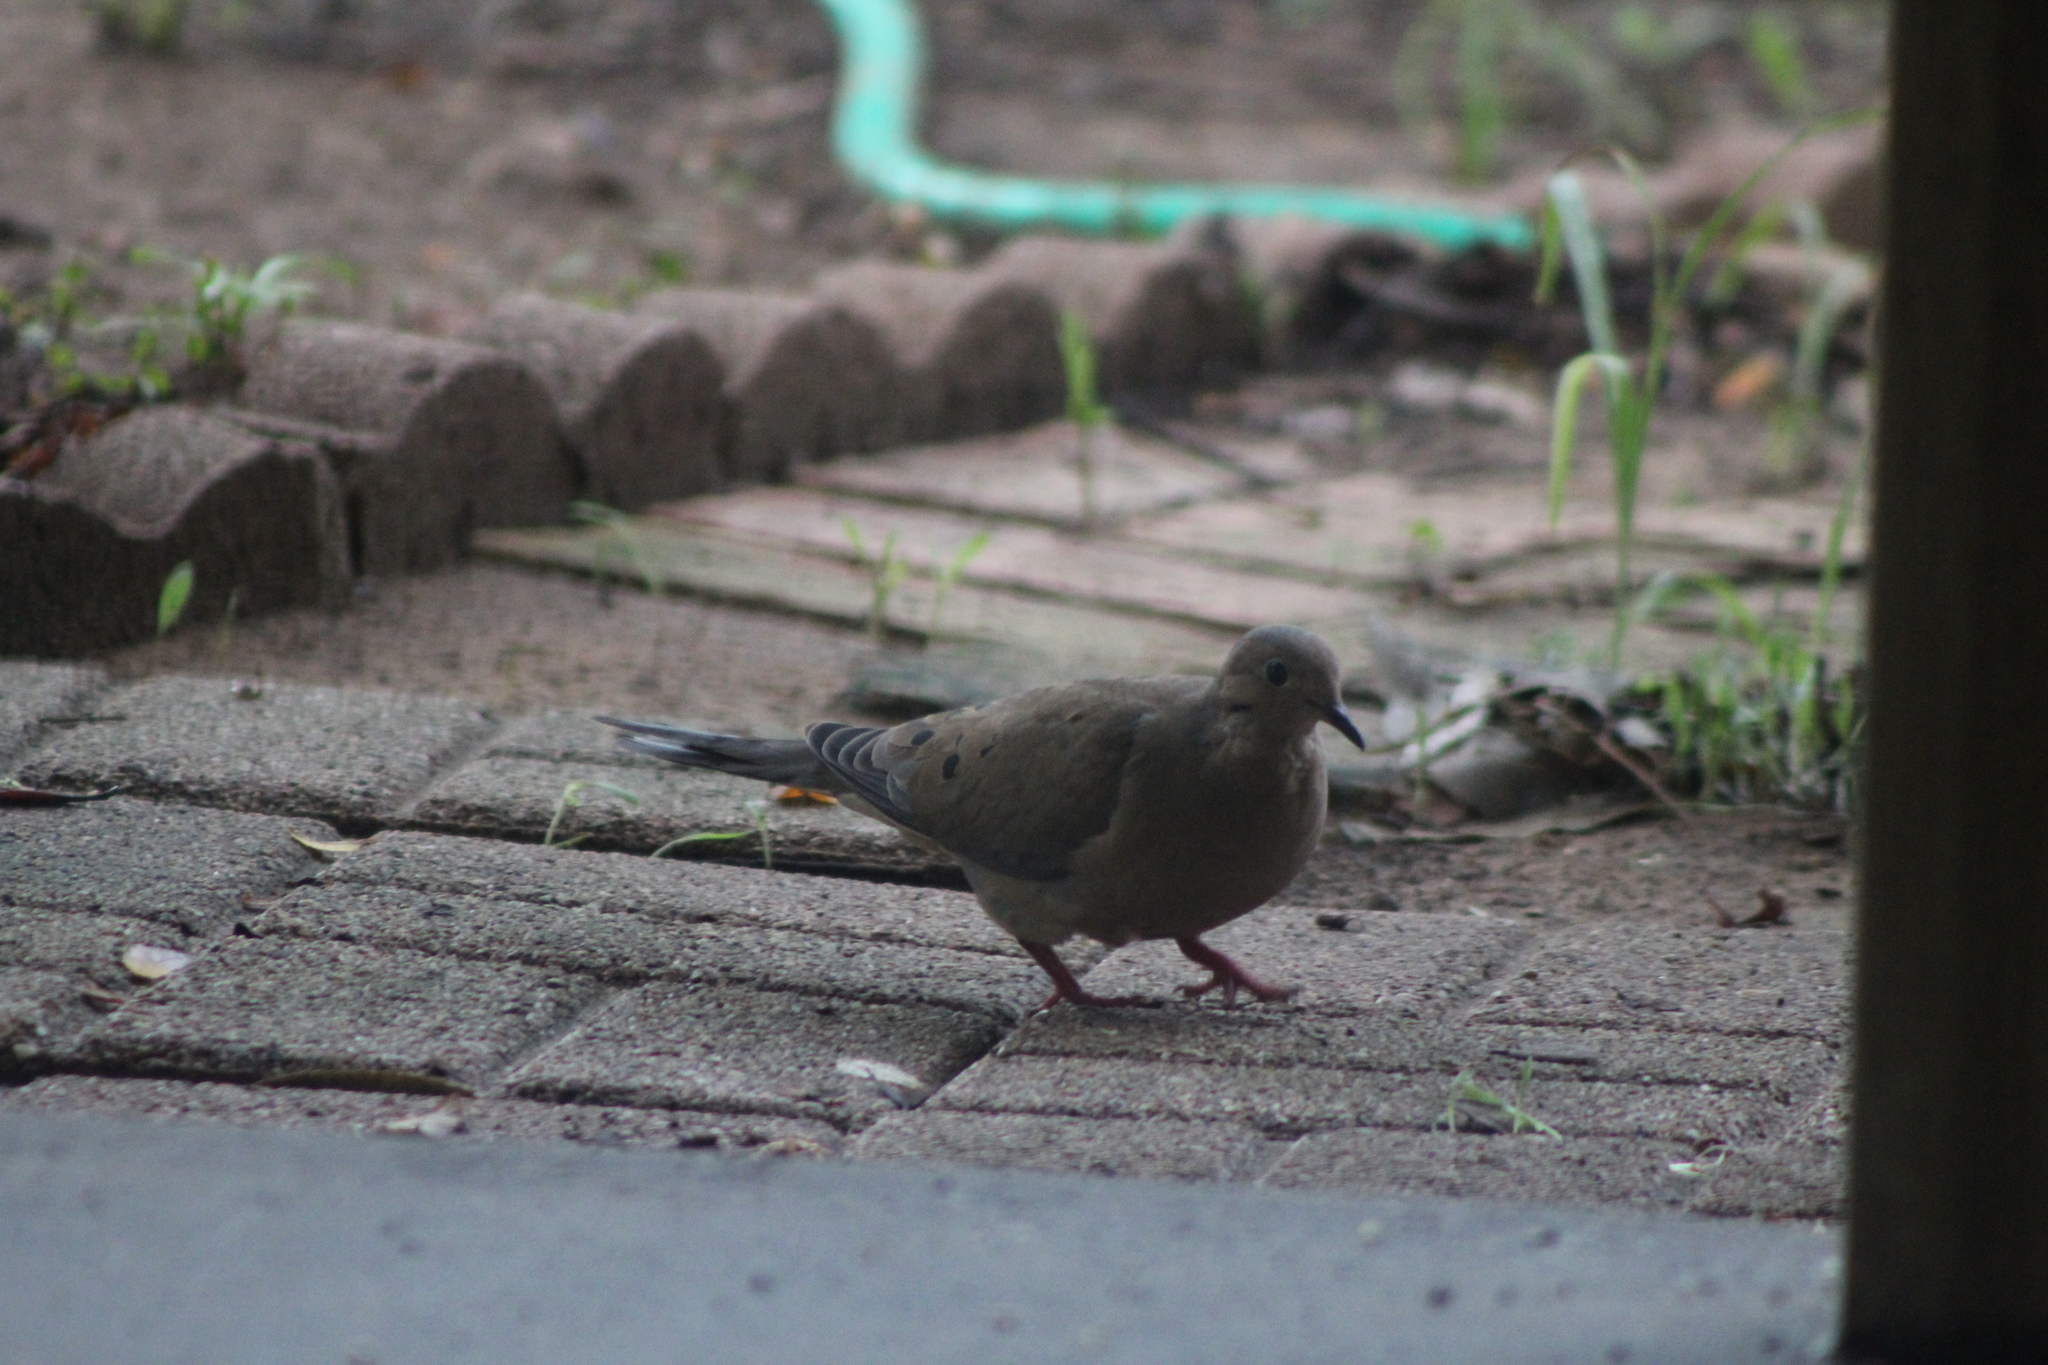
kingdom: Animalia
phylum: Chordata
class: Aves
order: Columbiformes
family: Columbidae
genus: Zenaida
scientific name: Zenaida macroura
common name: Mourning dove
